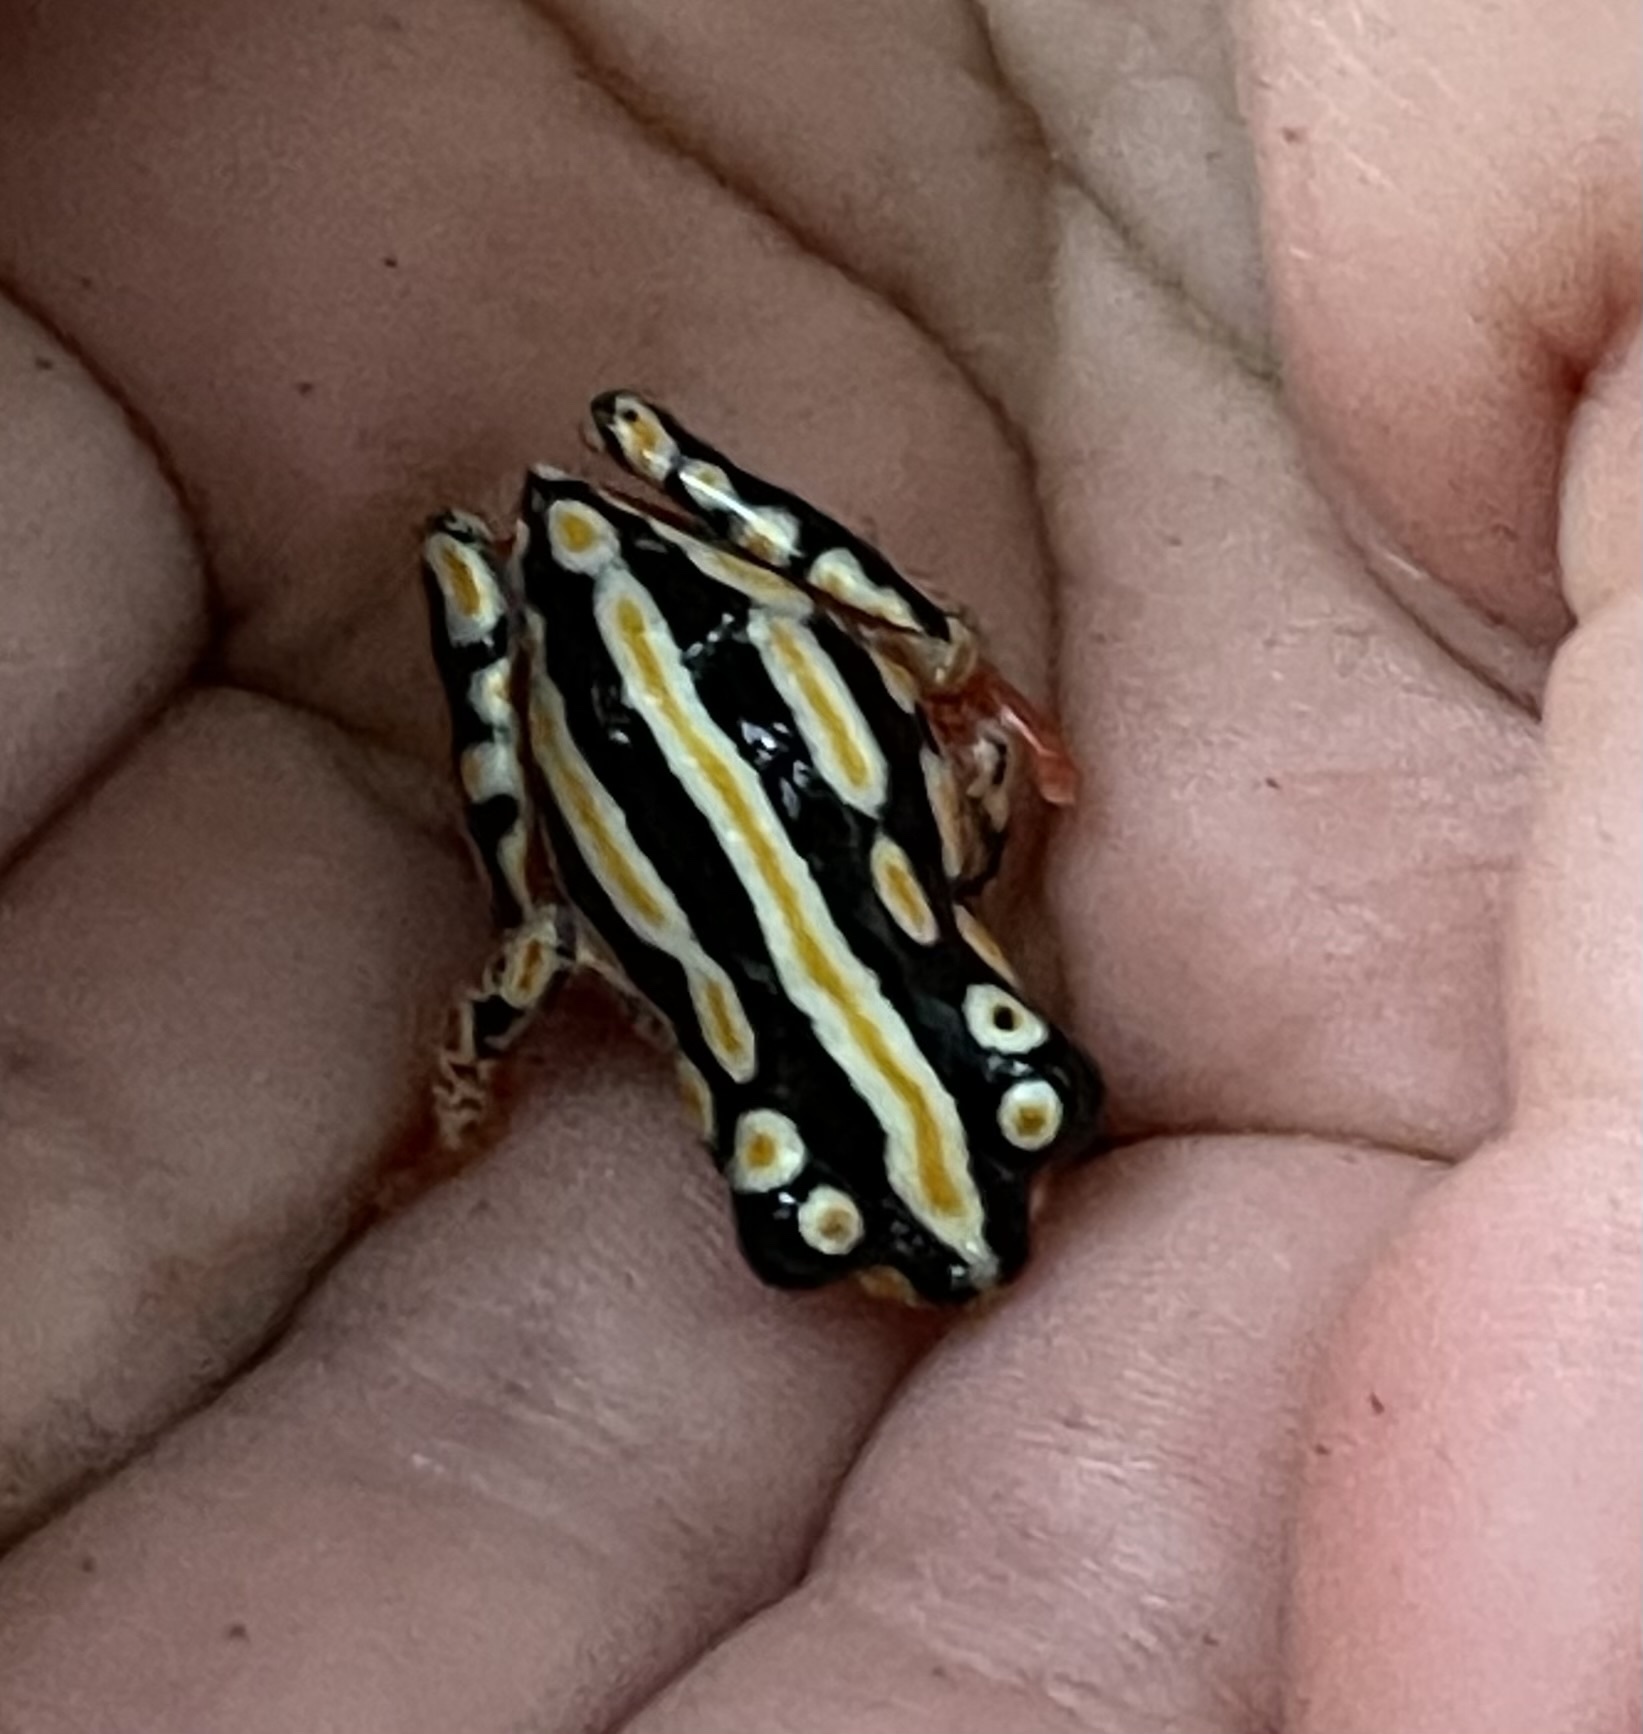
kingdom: Animalia
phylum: Chordata
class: Amphibia
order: Anura
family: Hyperoliidae
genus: Hyperolius
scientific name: Hyperolius marmoratus
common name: Painted reed frog
